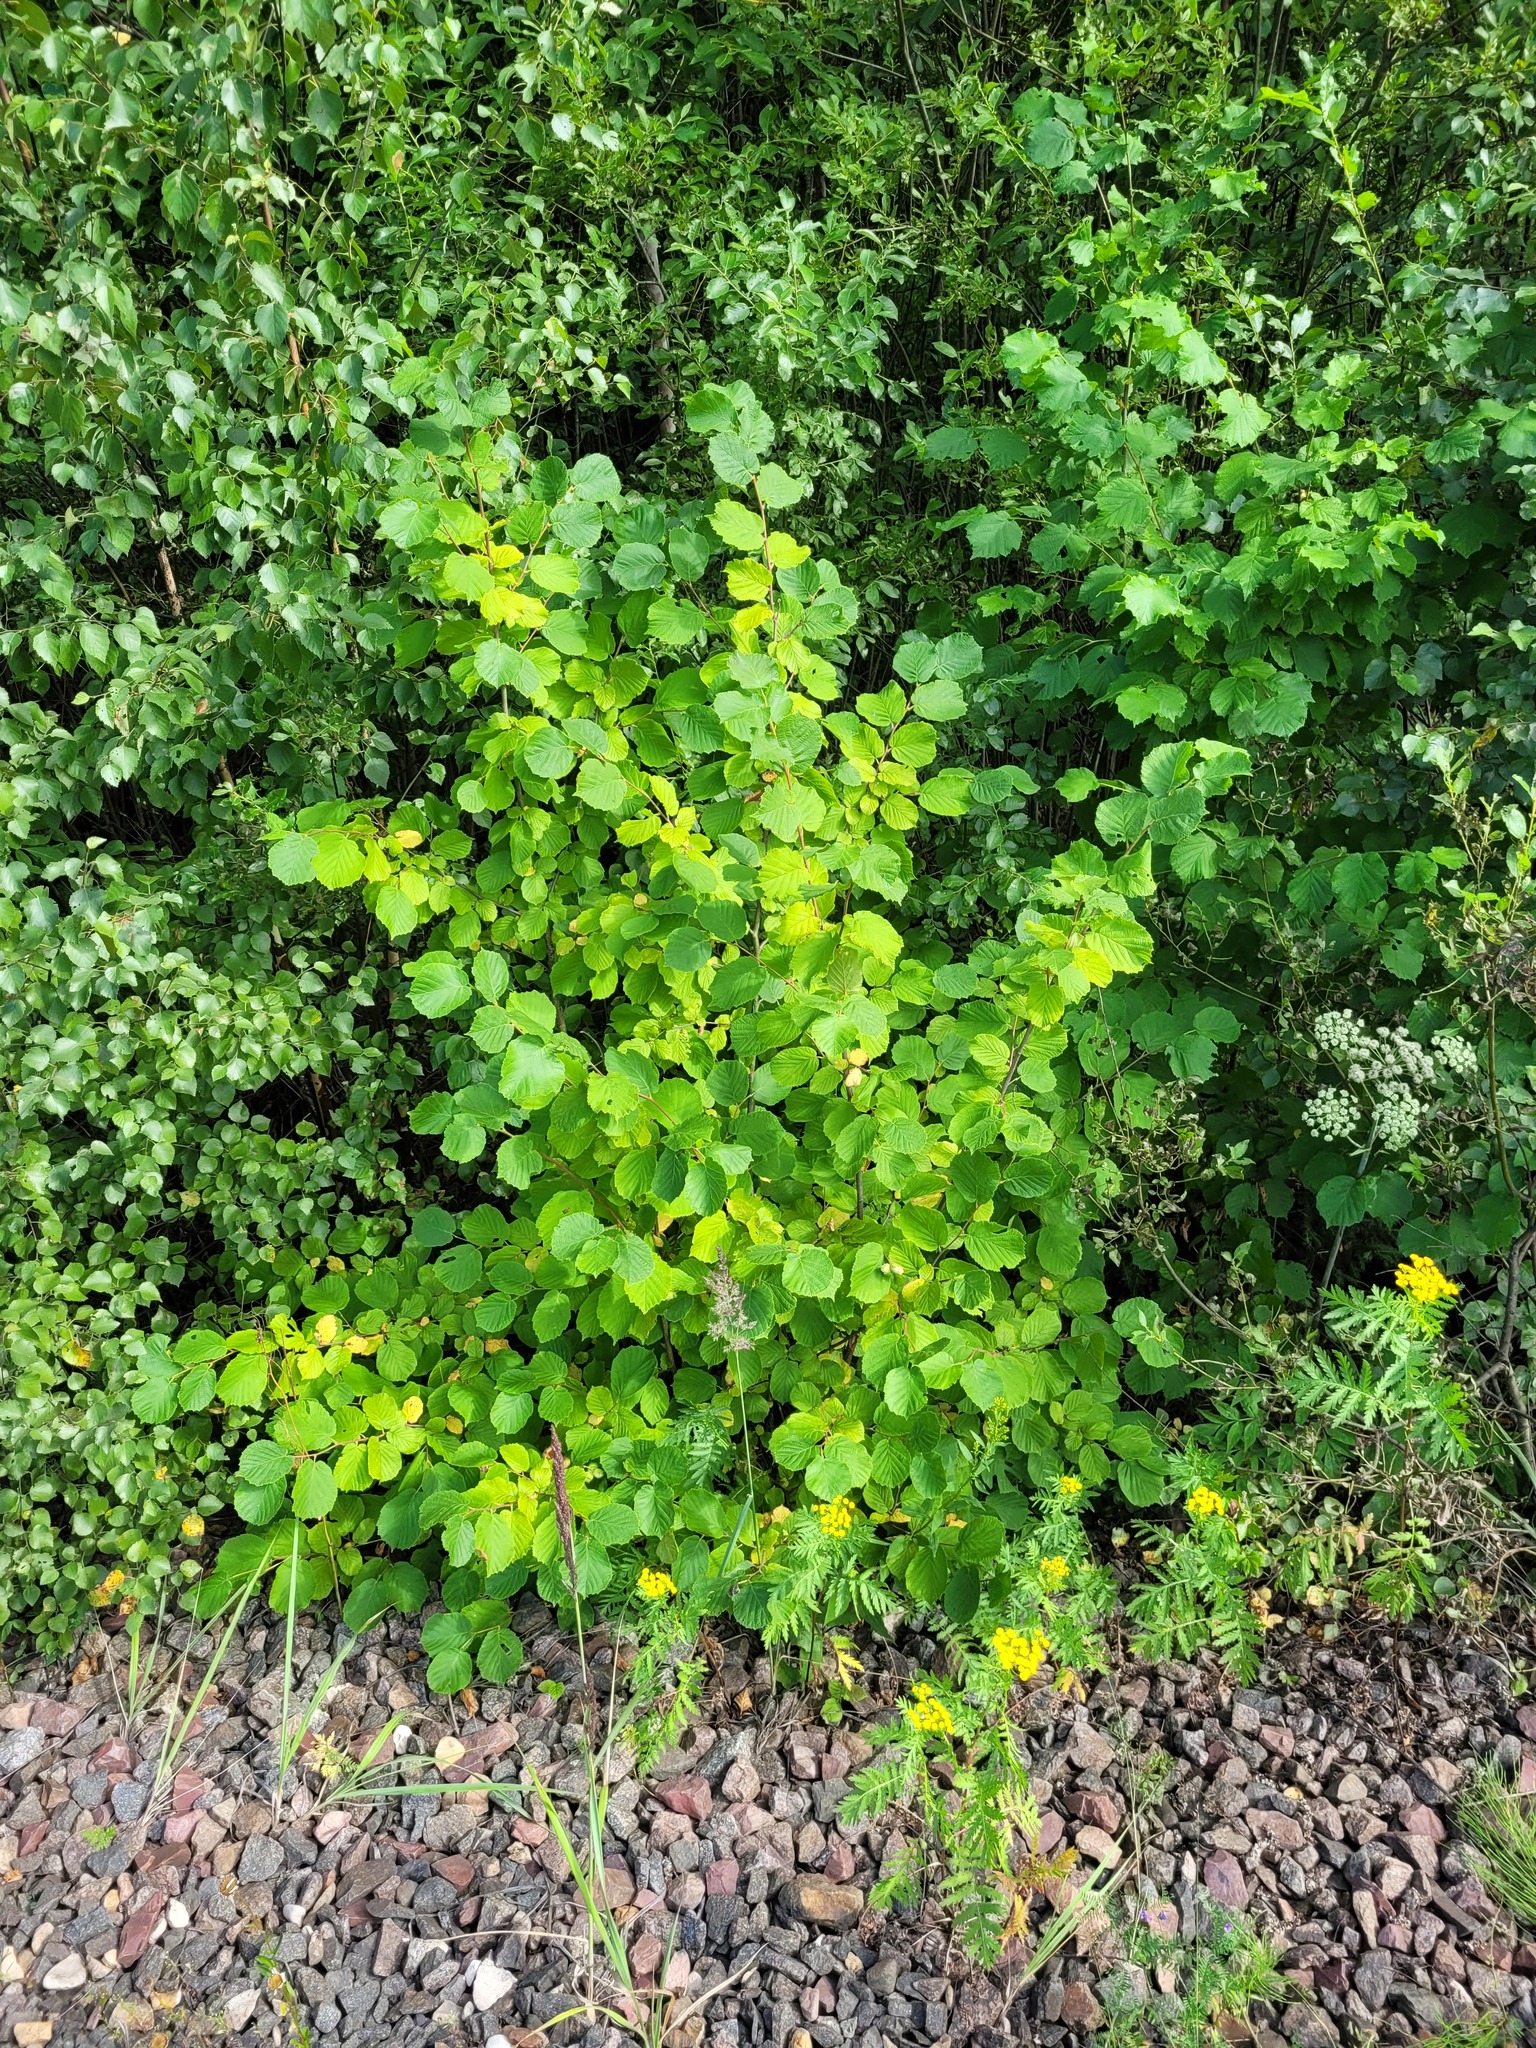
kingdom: Plantae
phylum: Tracheophyta
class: Magnoliopsida
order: Fagales
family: Betulaceae
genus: Corylus
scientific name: Corylus avellana
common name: European hazel
